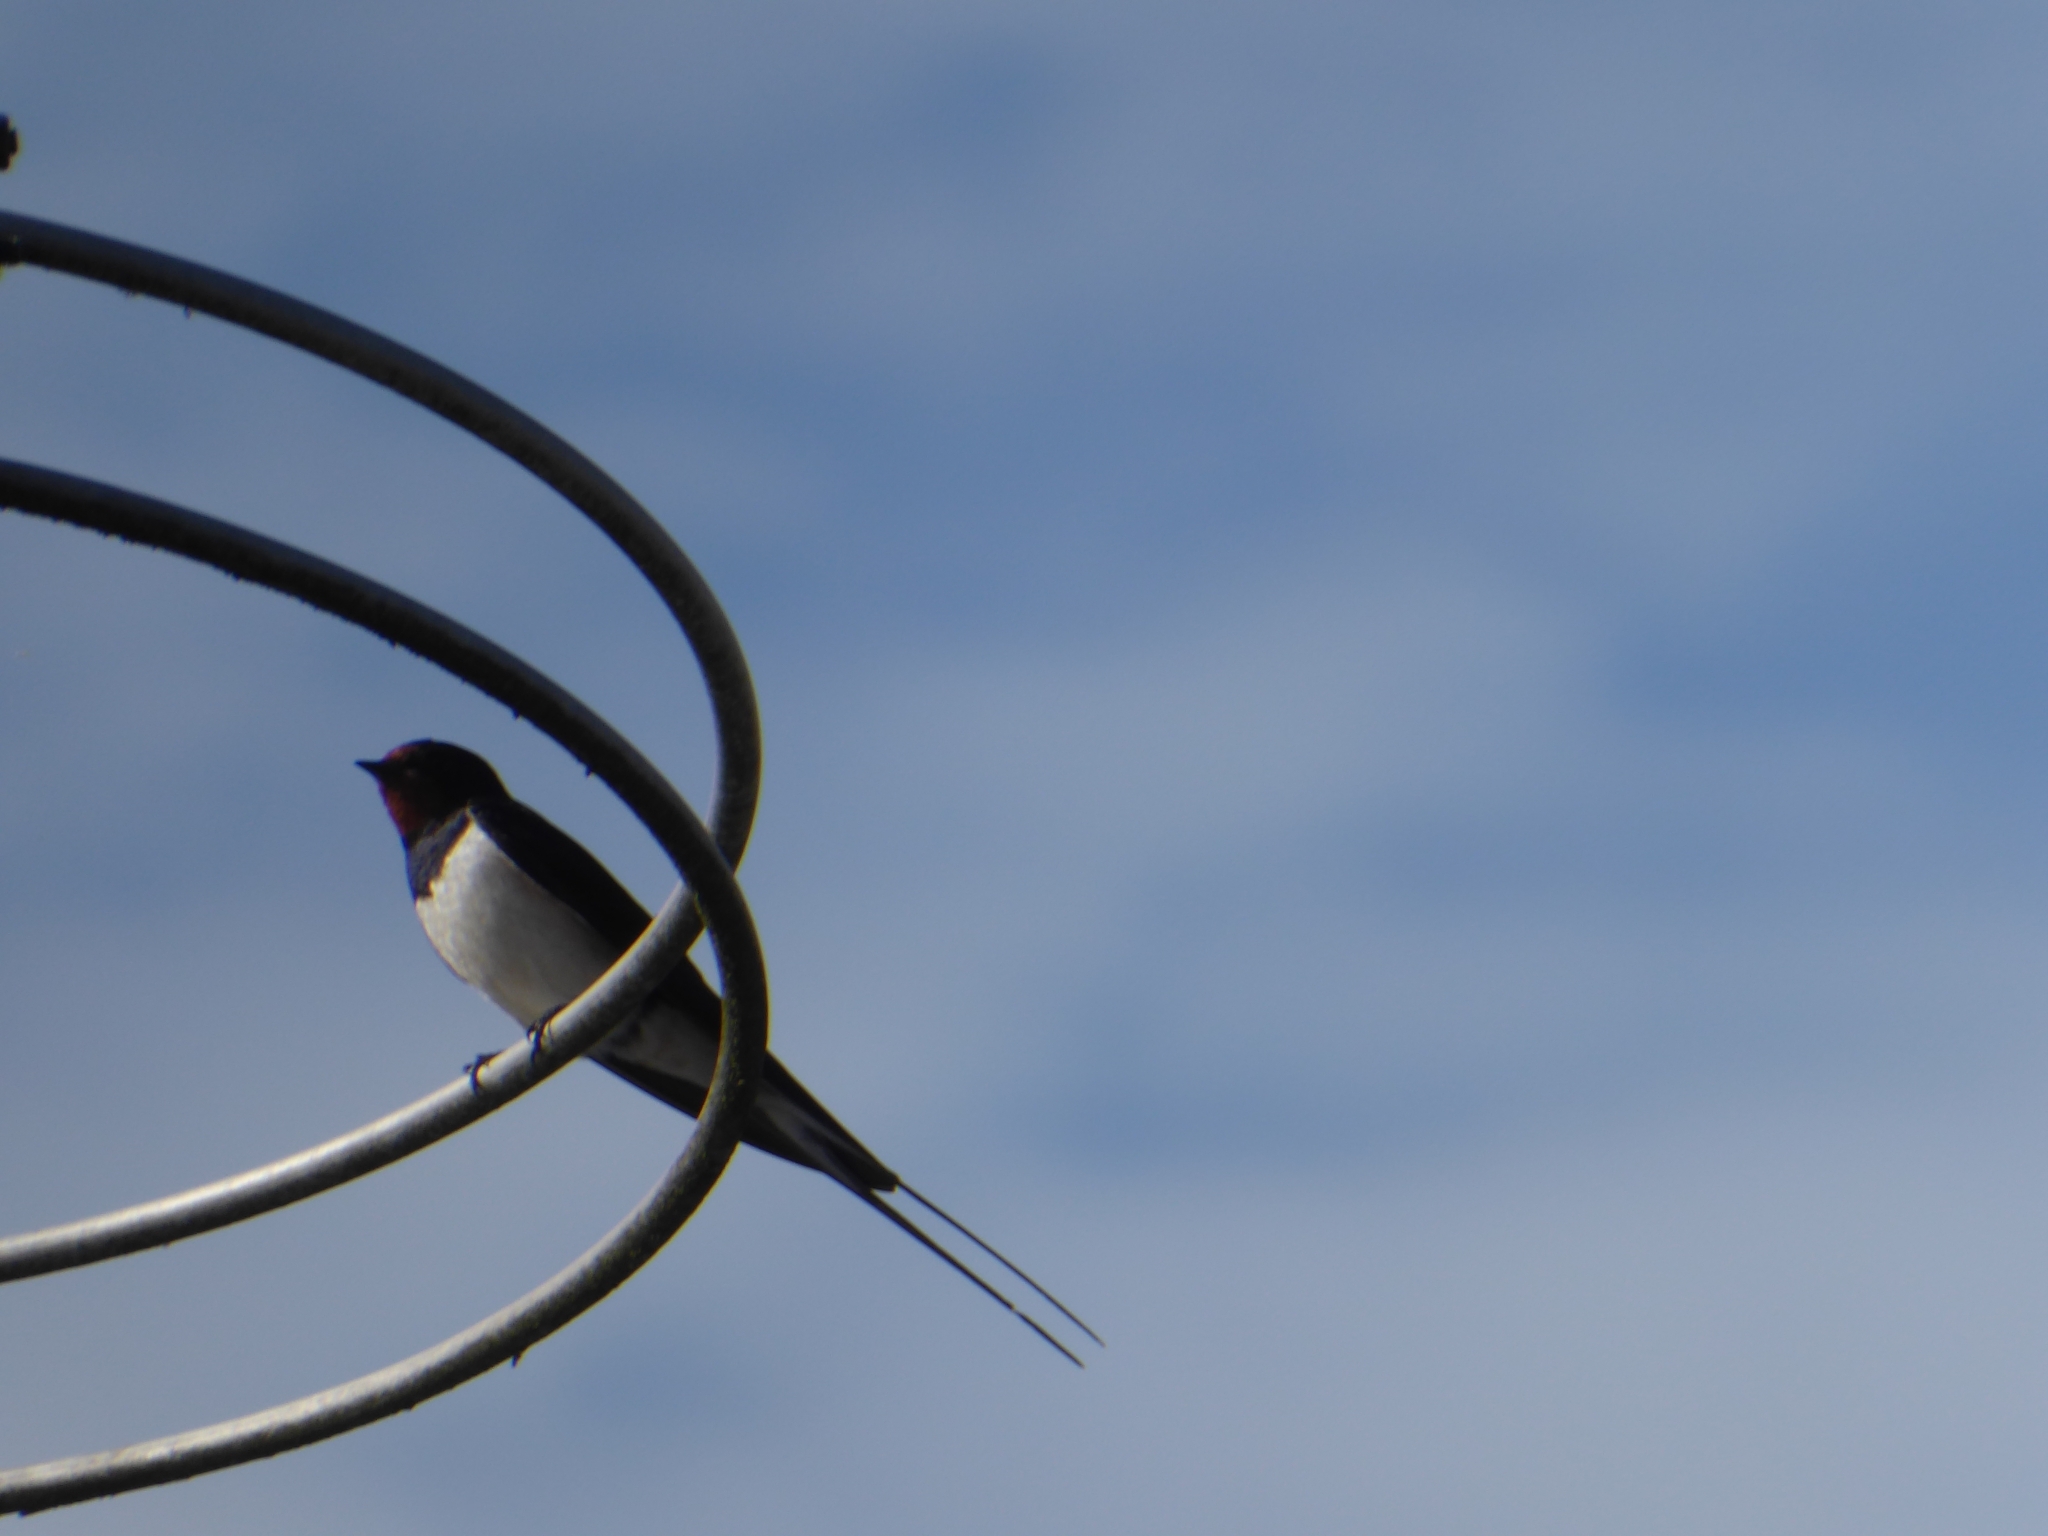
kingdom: Animalia
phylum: Chordata
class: Aves
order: Passeriformes
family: Hirundinidae
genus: Hirundo
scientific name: Hirundo rustica
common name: Barn swallow
